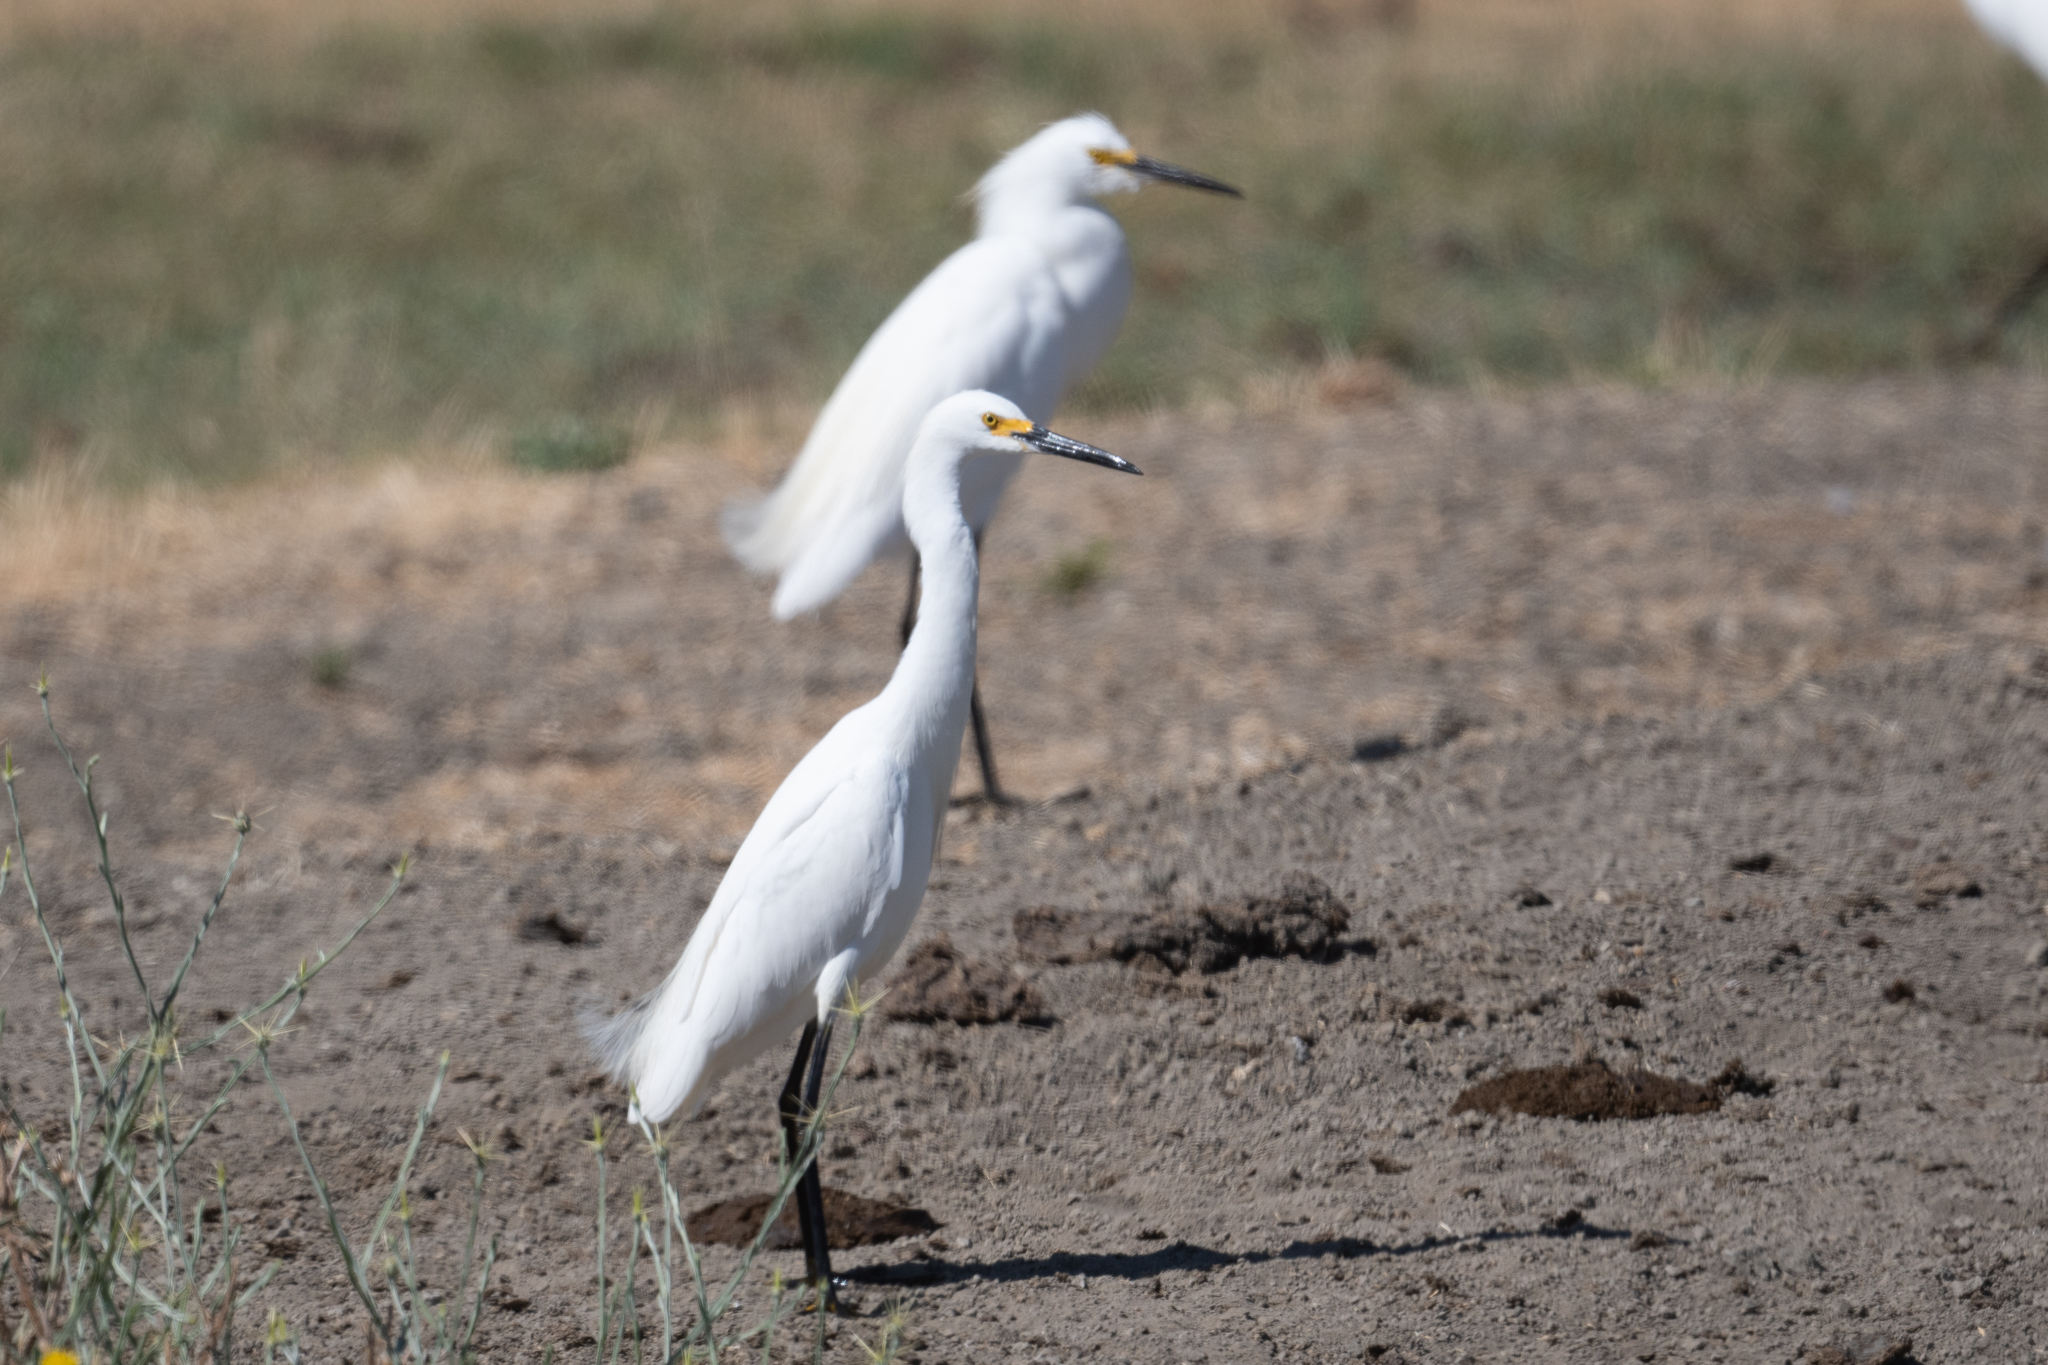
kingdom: Animalia
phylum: Chordata
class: Aves
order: Pelecaniformes
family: Ardeidae
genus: Egretta
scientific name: Egretta thula
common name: Snowy egret
